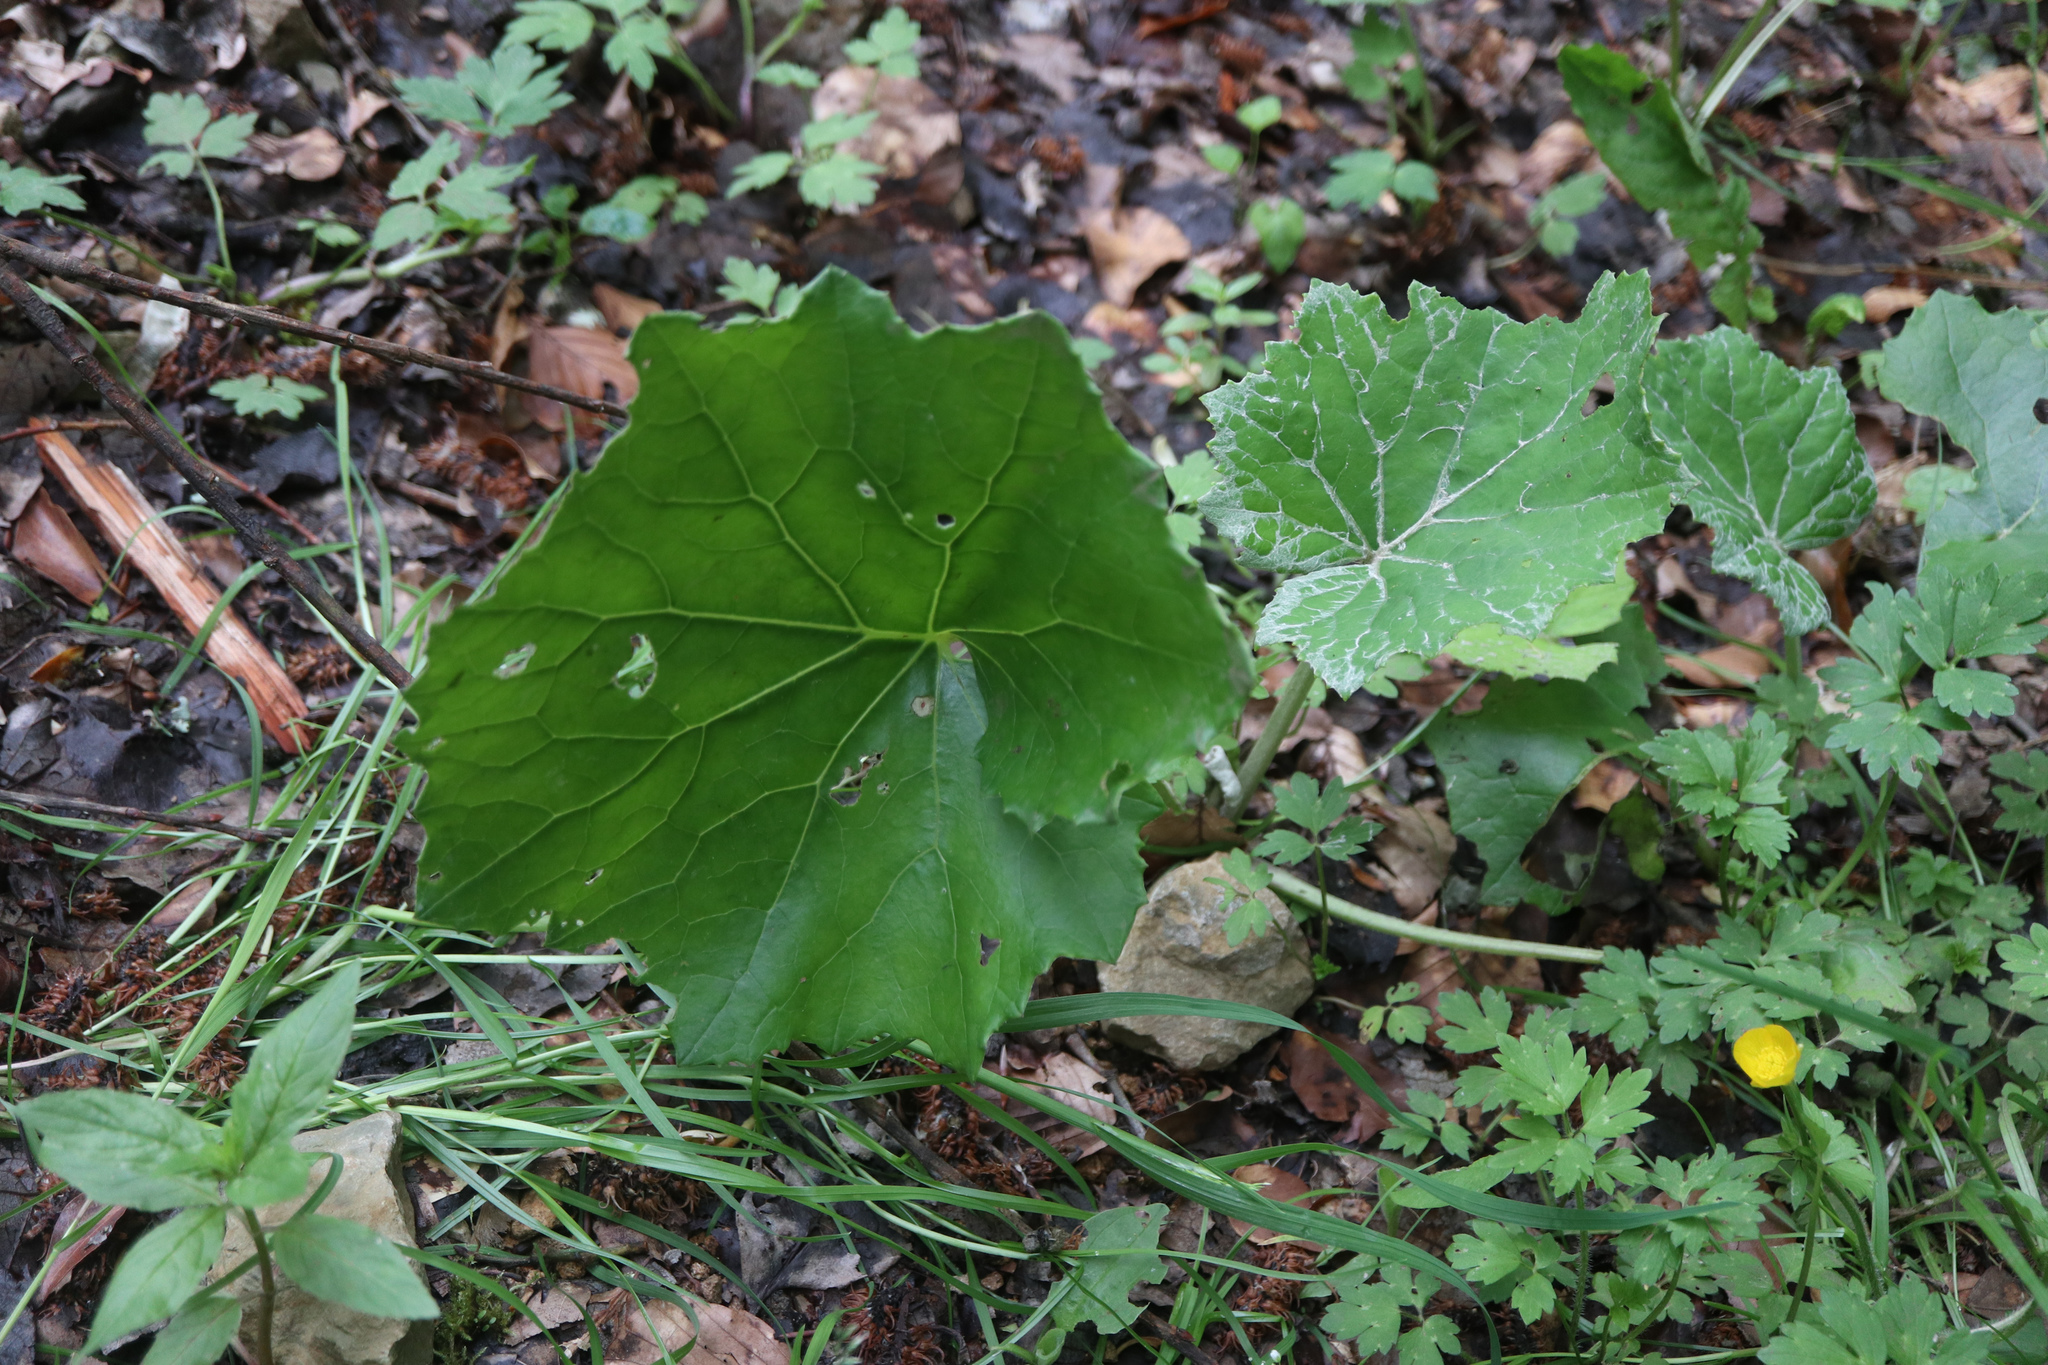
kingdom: Plantae
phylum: Tracheophyta
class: Magnoliopsida
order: Asterales
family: Asteraceae
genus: Tussilago
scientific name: Tussilago farfara
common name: Coltsfoot
